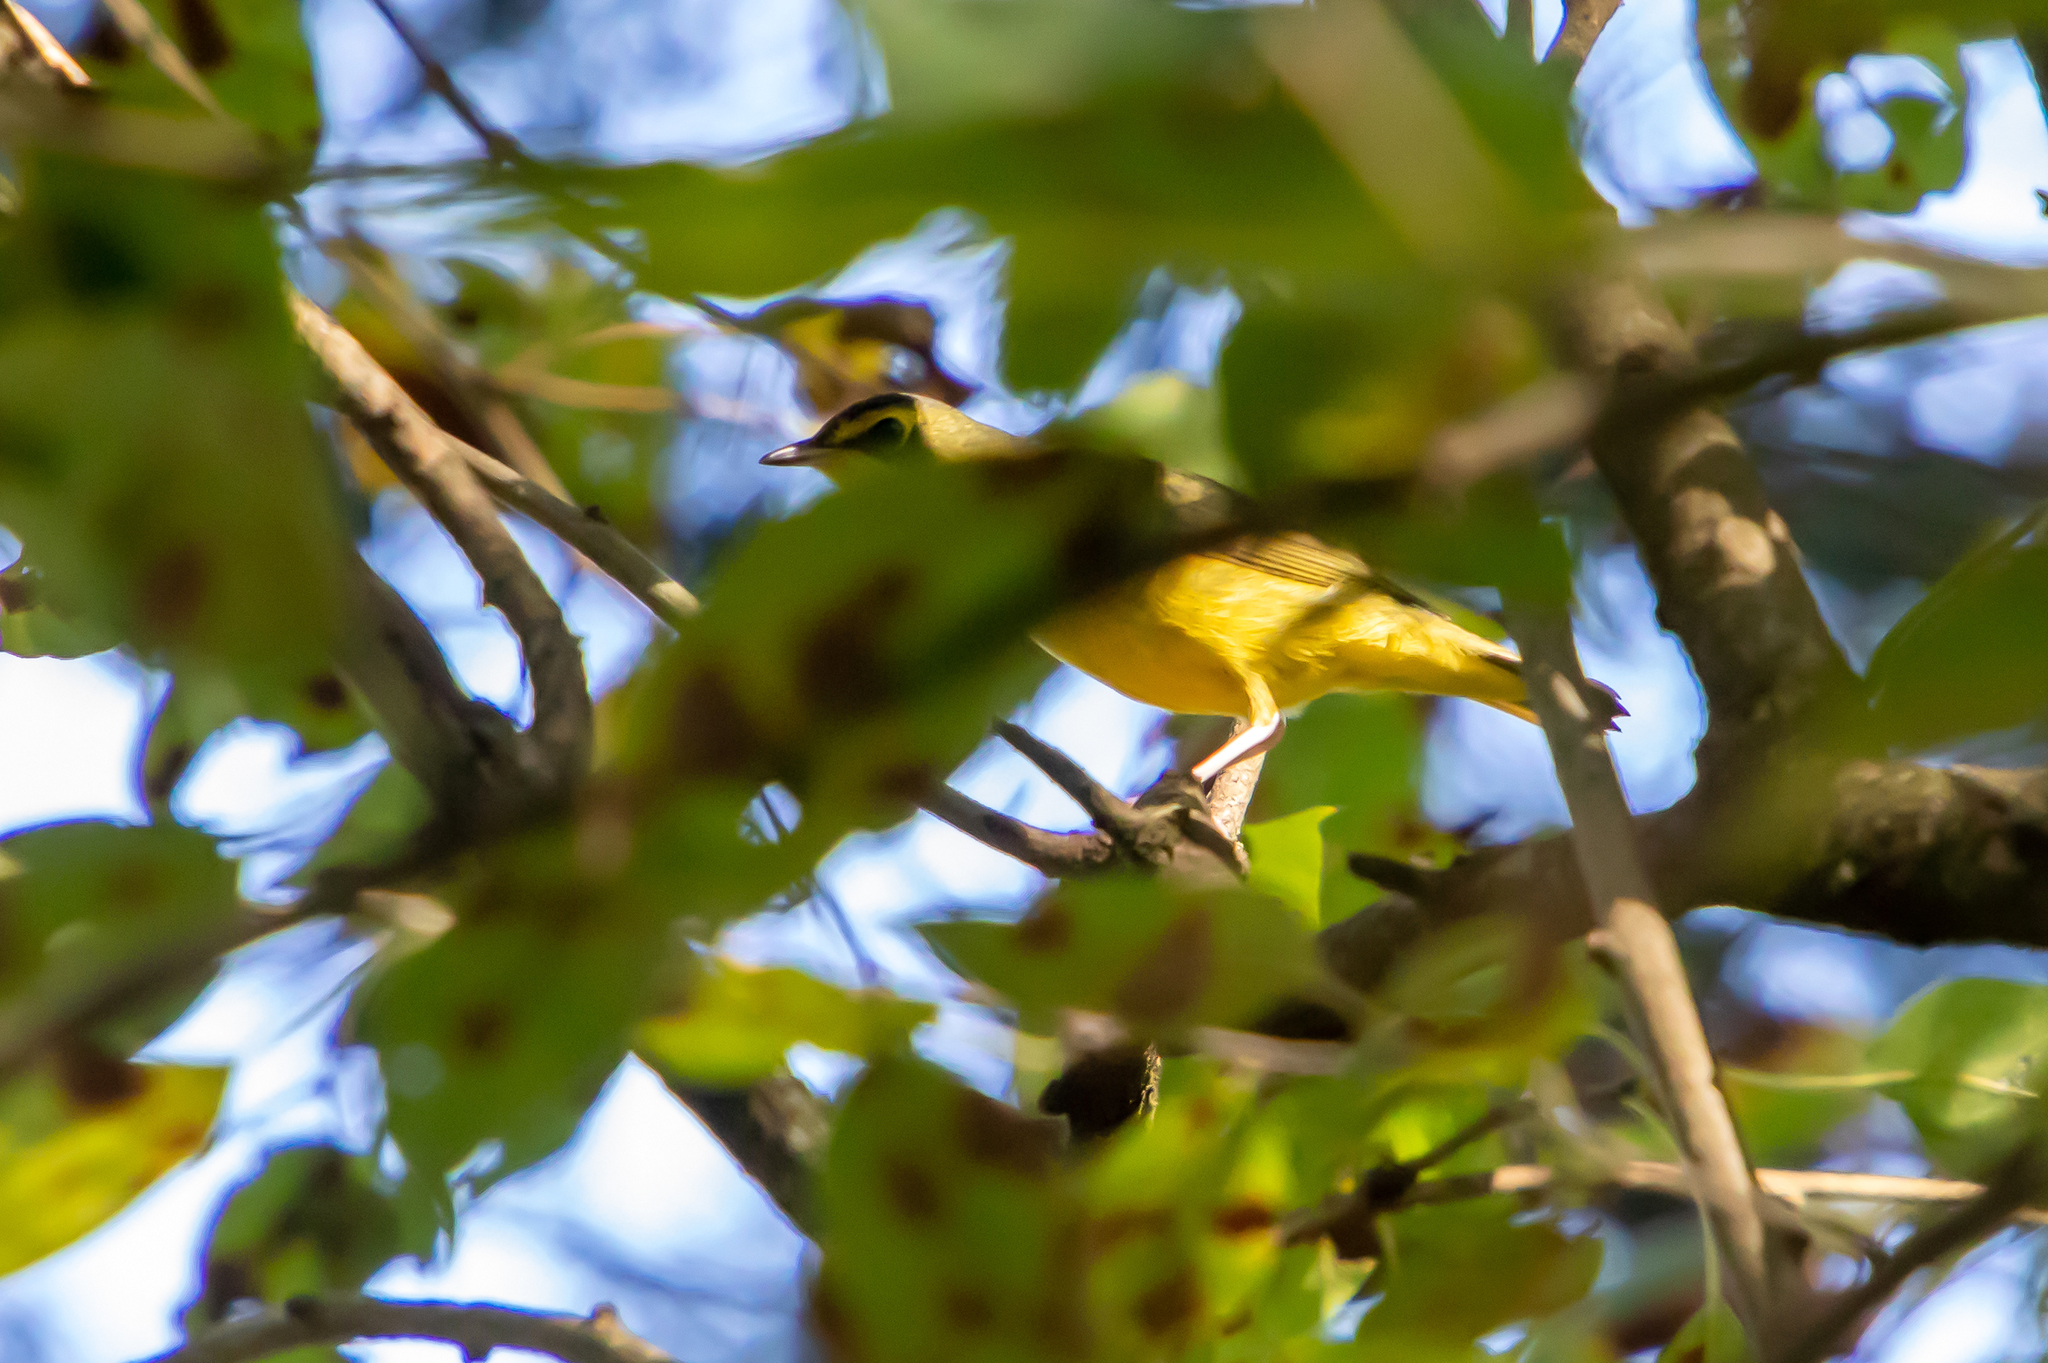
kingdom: Animalia
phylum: Chordata
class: Aves
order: Passeriformes
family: Parulidae
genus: Geothlypis
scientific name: Geothlypis formosa
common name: Kentucky warbler
